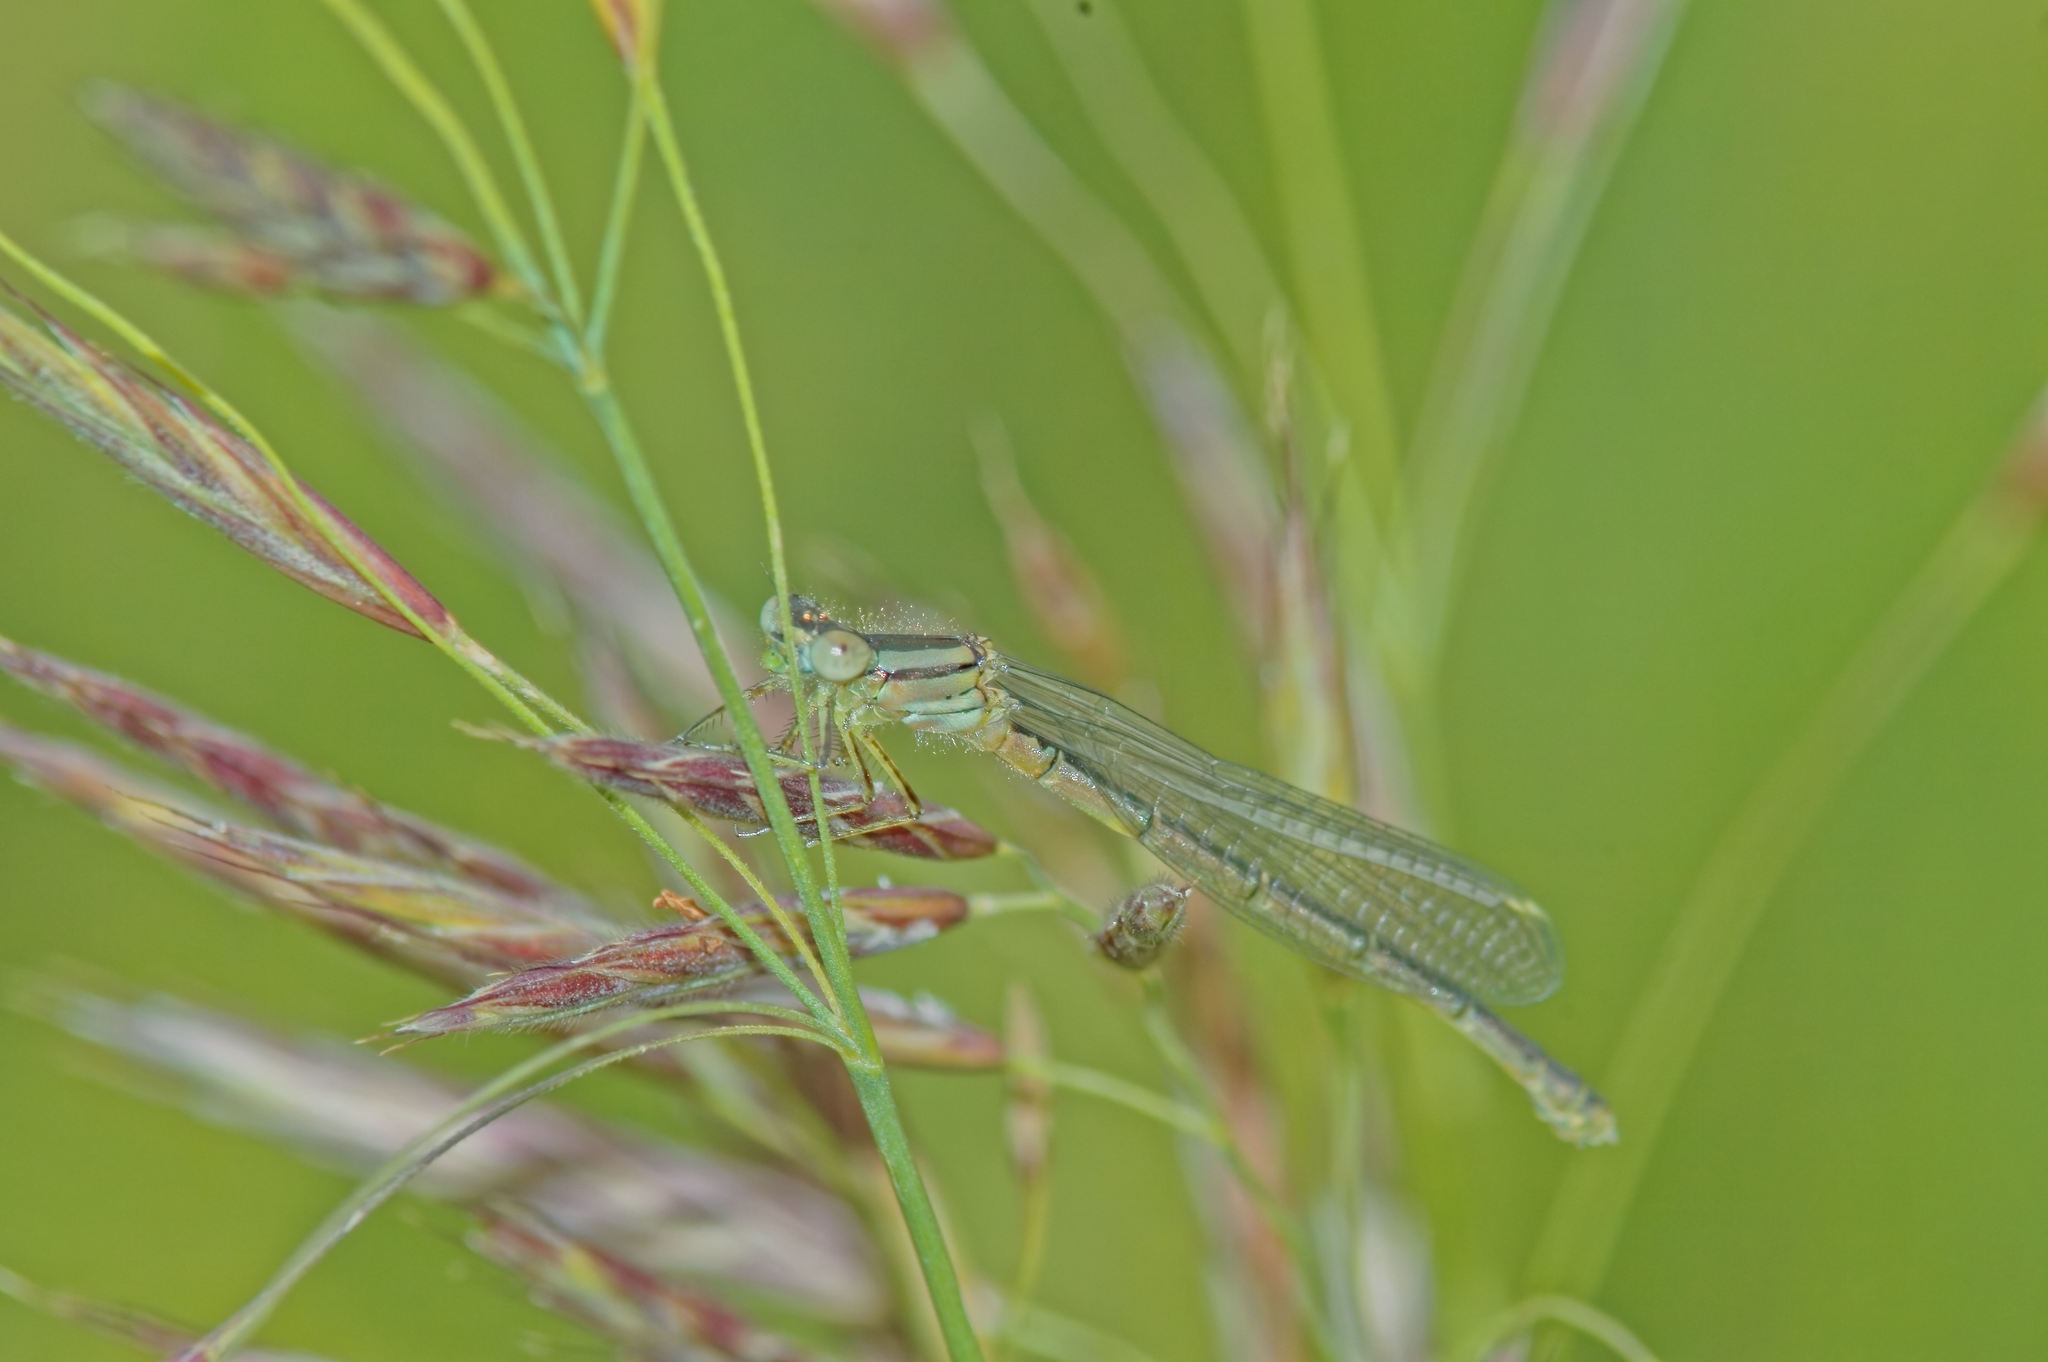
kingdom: Animalia
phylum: Arthropoda
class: Insecta
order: Odonata
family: Coenagrionidae
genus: Erythromma
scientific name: Erythromma lindenii
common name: Blue-eye
